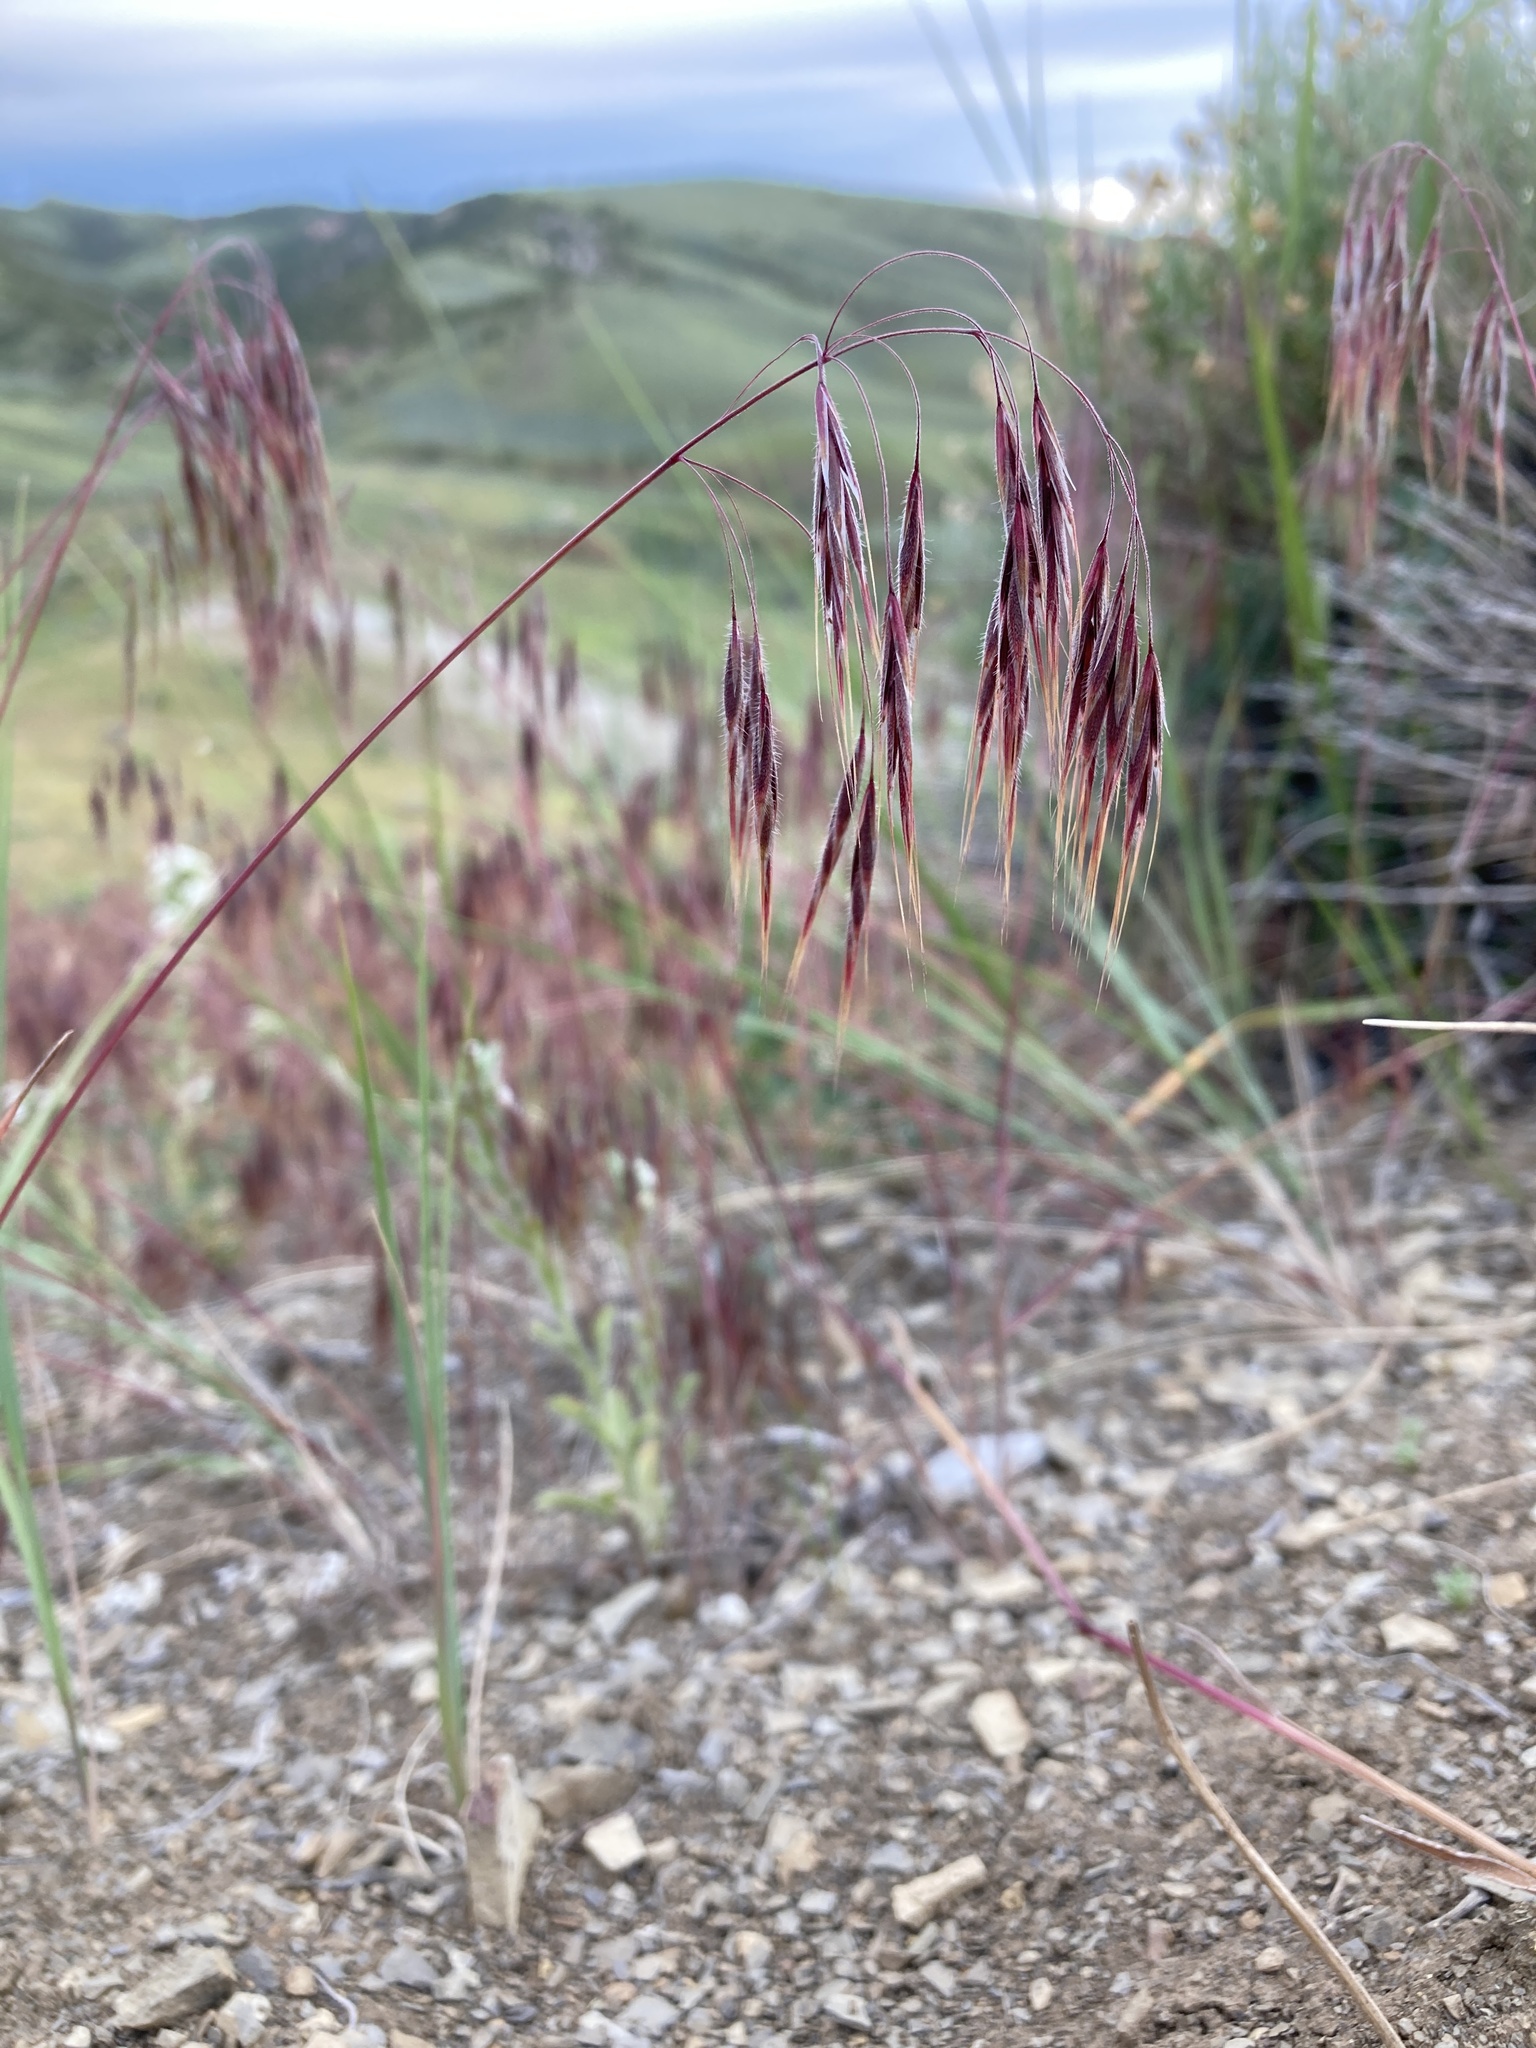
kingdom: Plantae
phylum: Tracheophyta
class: Liliopsida
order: Poales
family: Poaceae
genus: Bromus
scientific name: Bromus tectorum
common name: Cheatgrass
